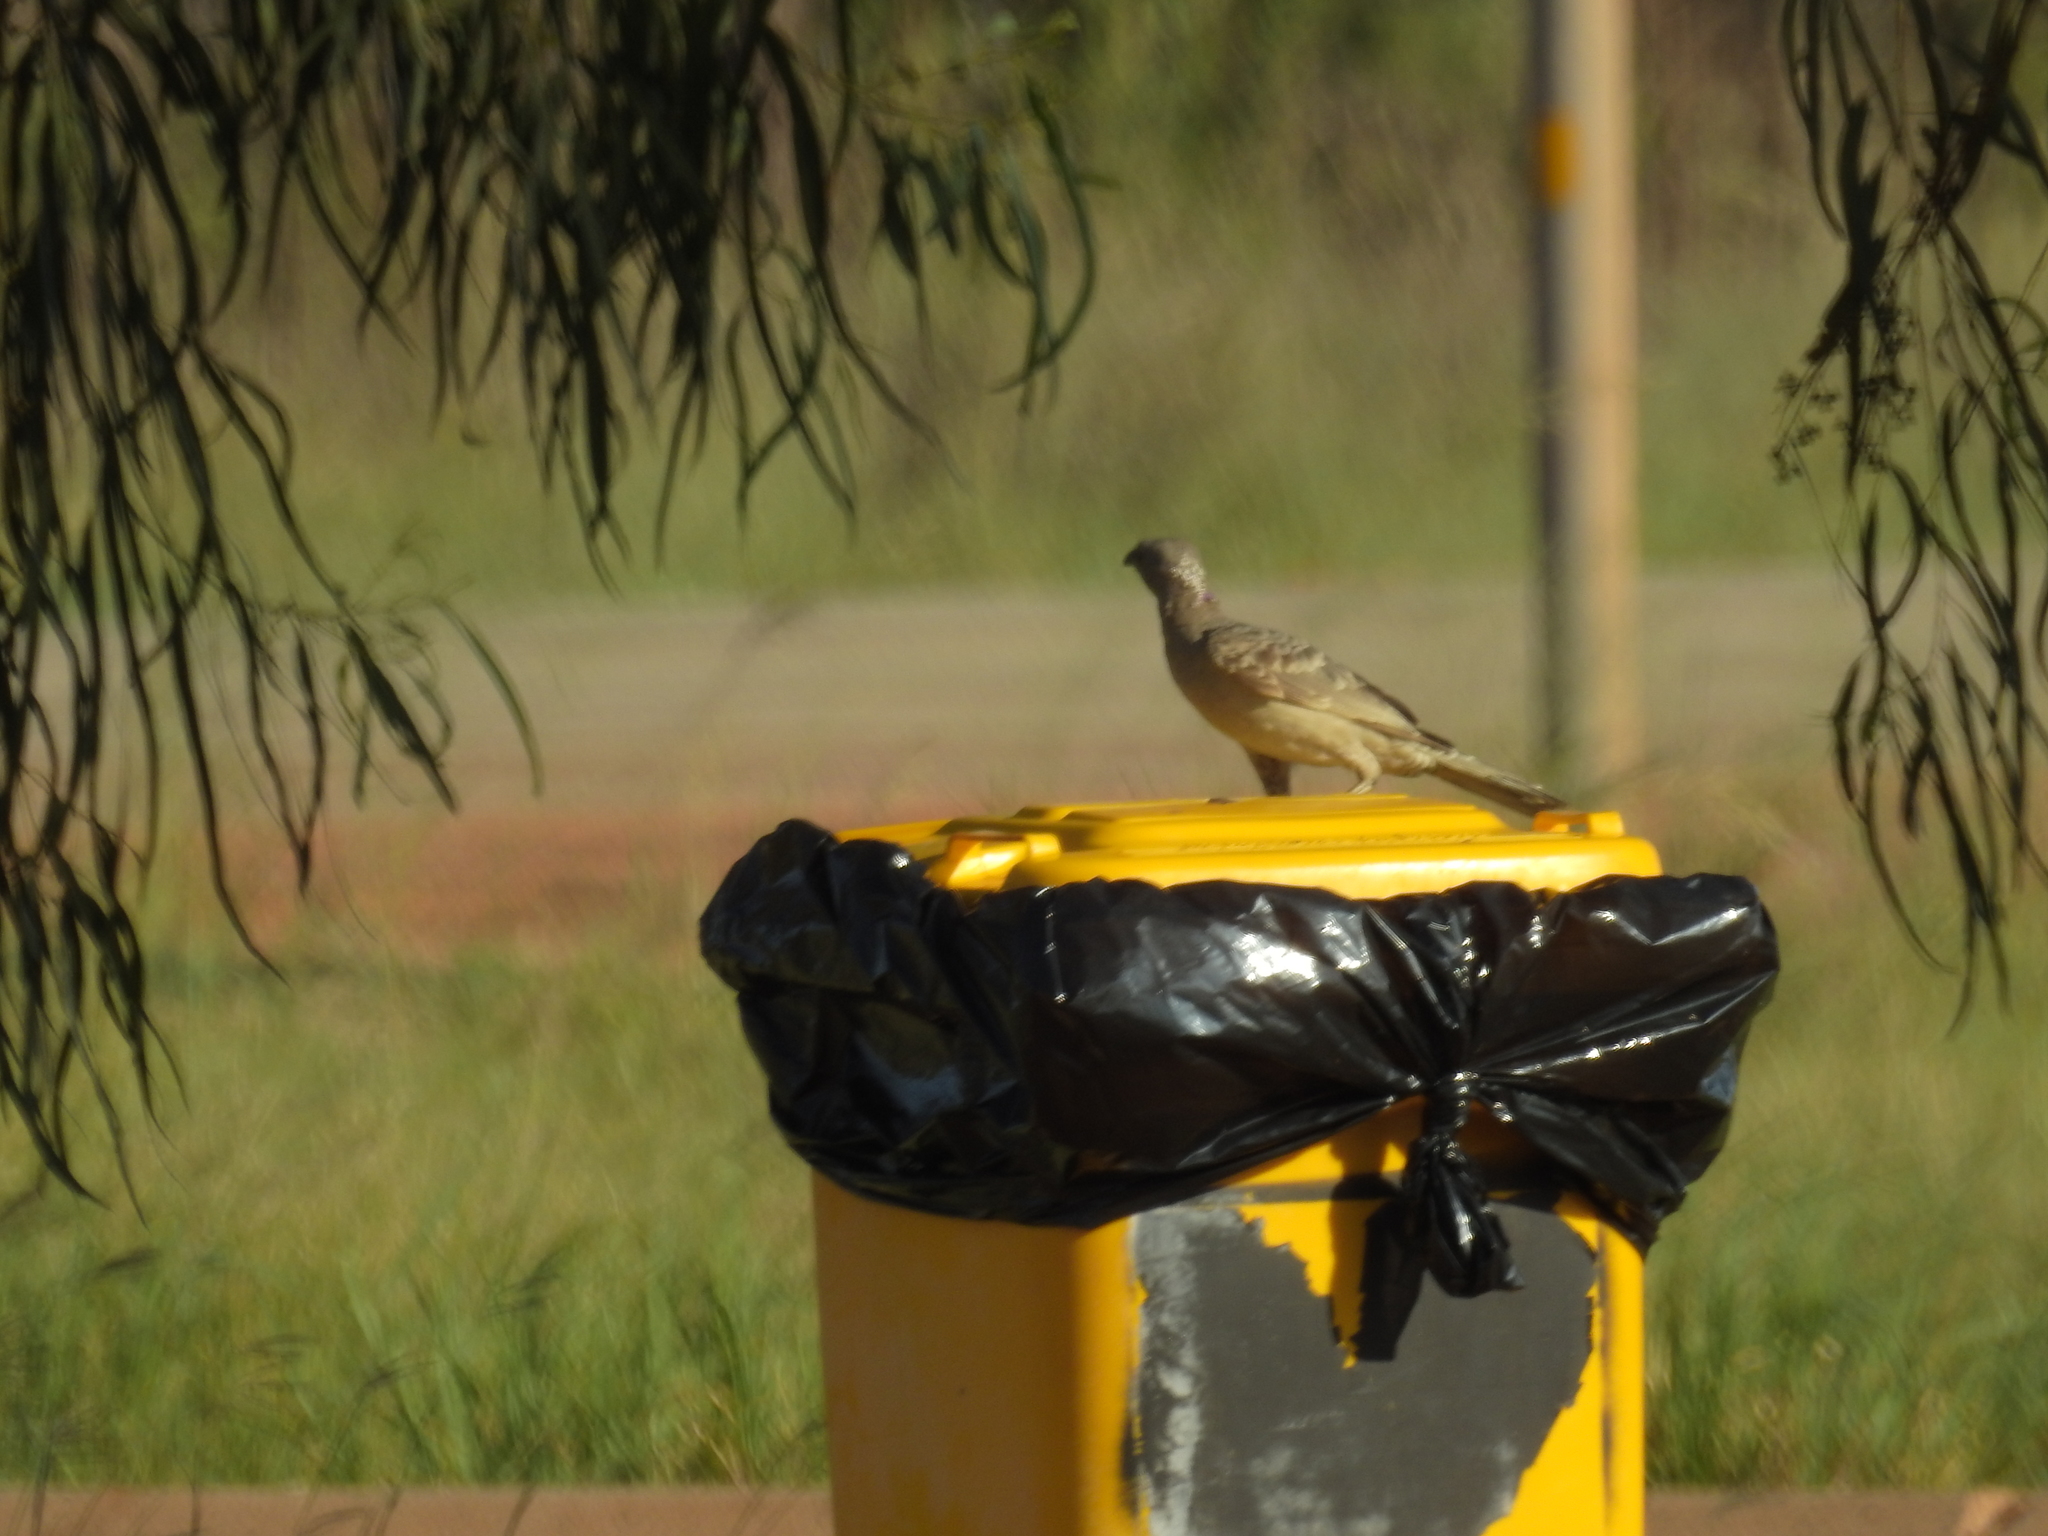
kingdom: Animalia
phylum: Chordata
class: Aves
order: Passeriformes
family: Ptilonorhynchidae
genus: Chlamydera
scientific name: Chlamydera nuchalis
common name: Great bowerbird
